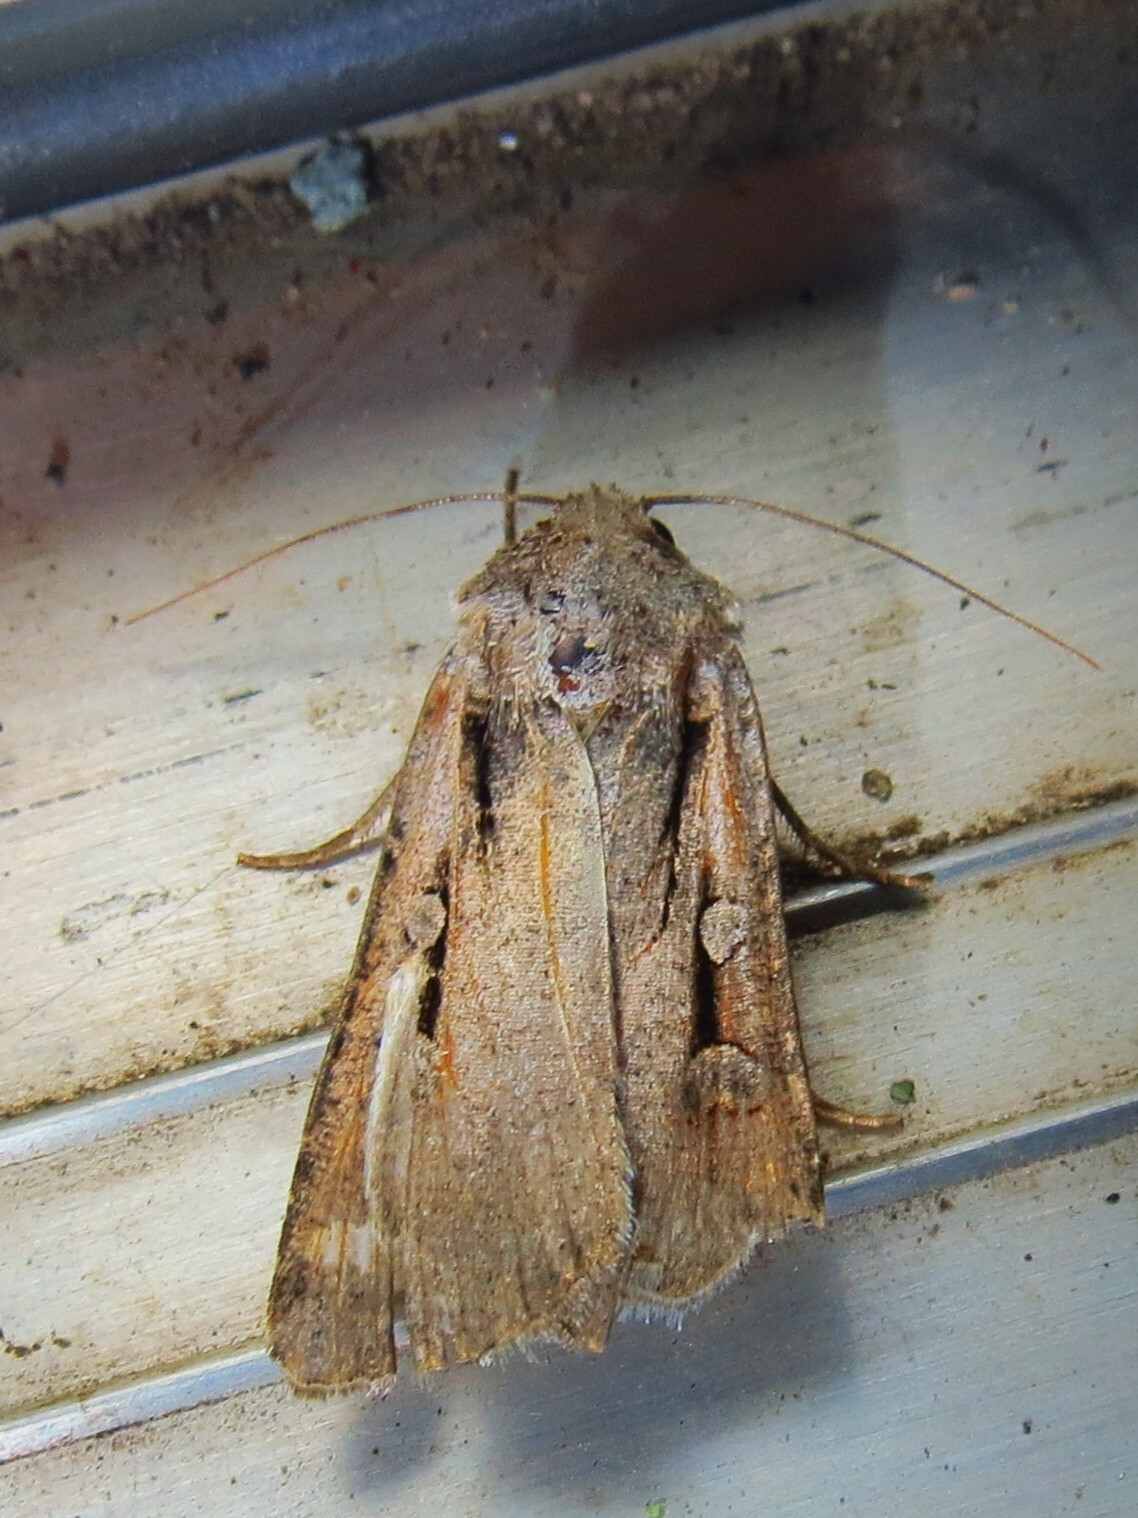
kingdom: Animalia
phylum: Arthropoda
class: Insecta
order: Lepidoptera
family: Noctuidae
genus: Feltia
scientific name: Feltia subterranea
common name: Granulate cutworm
